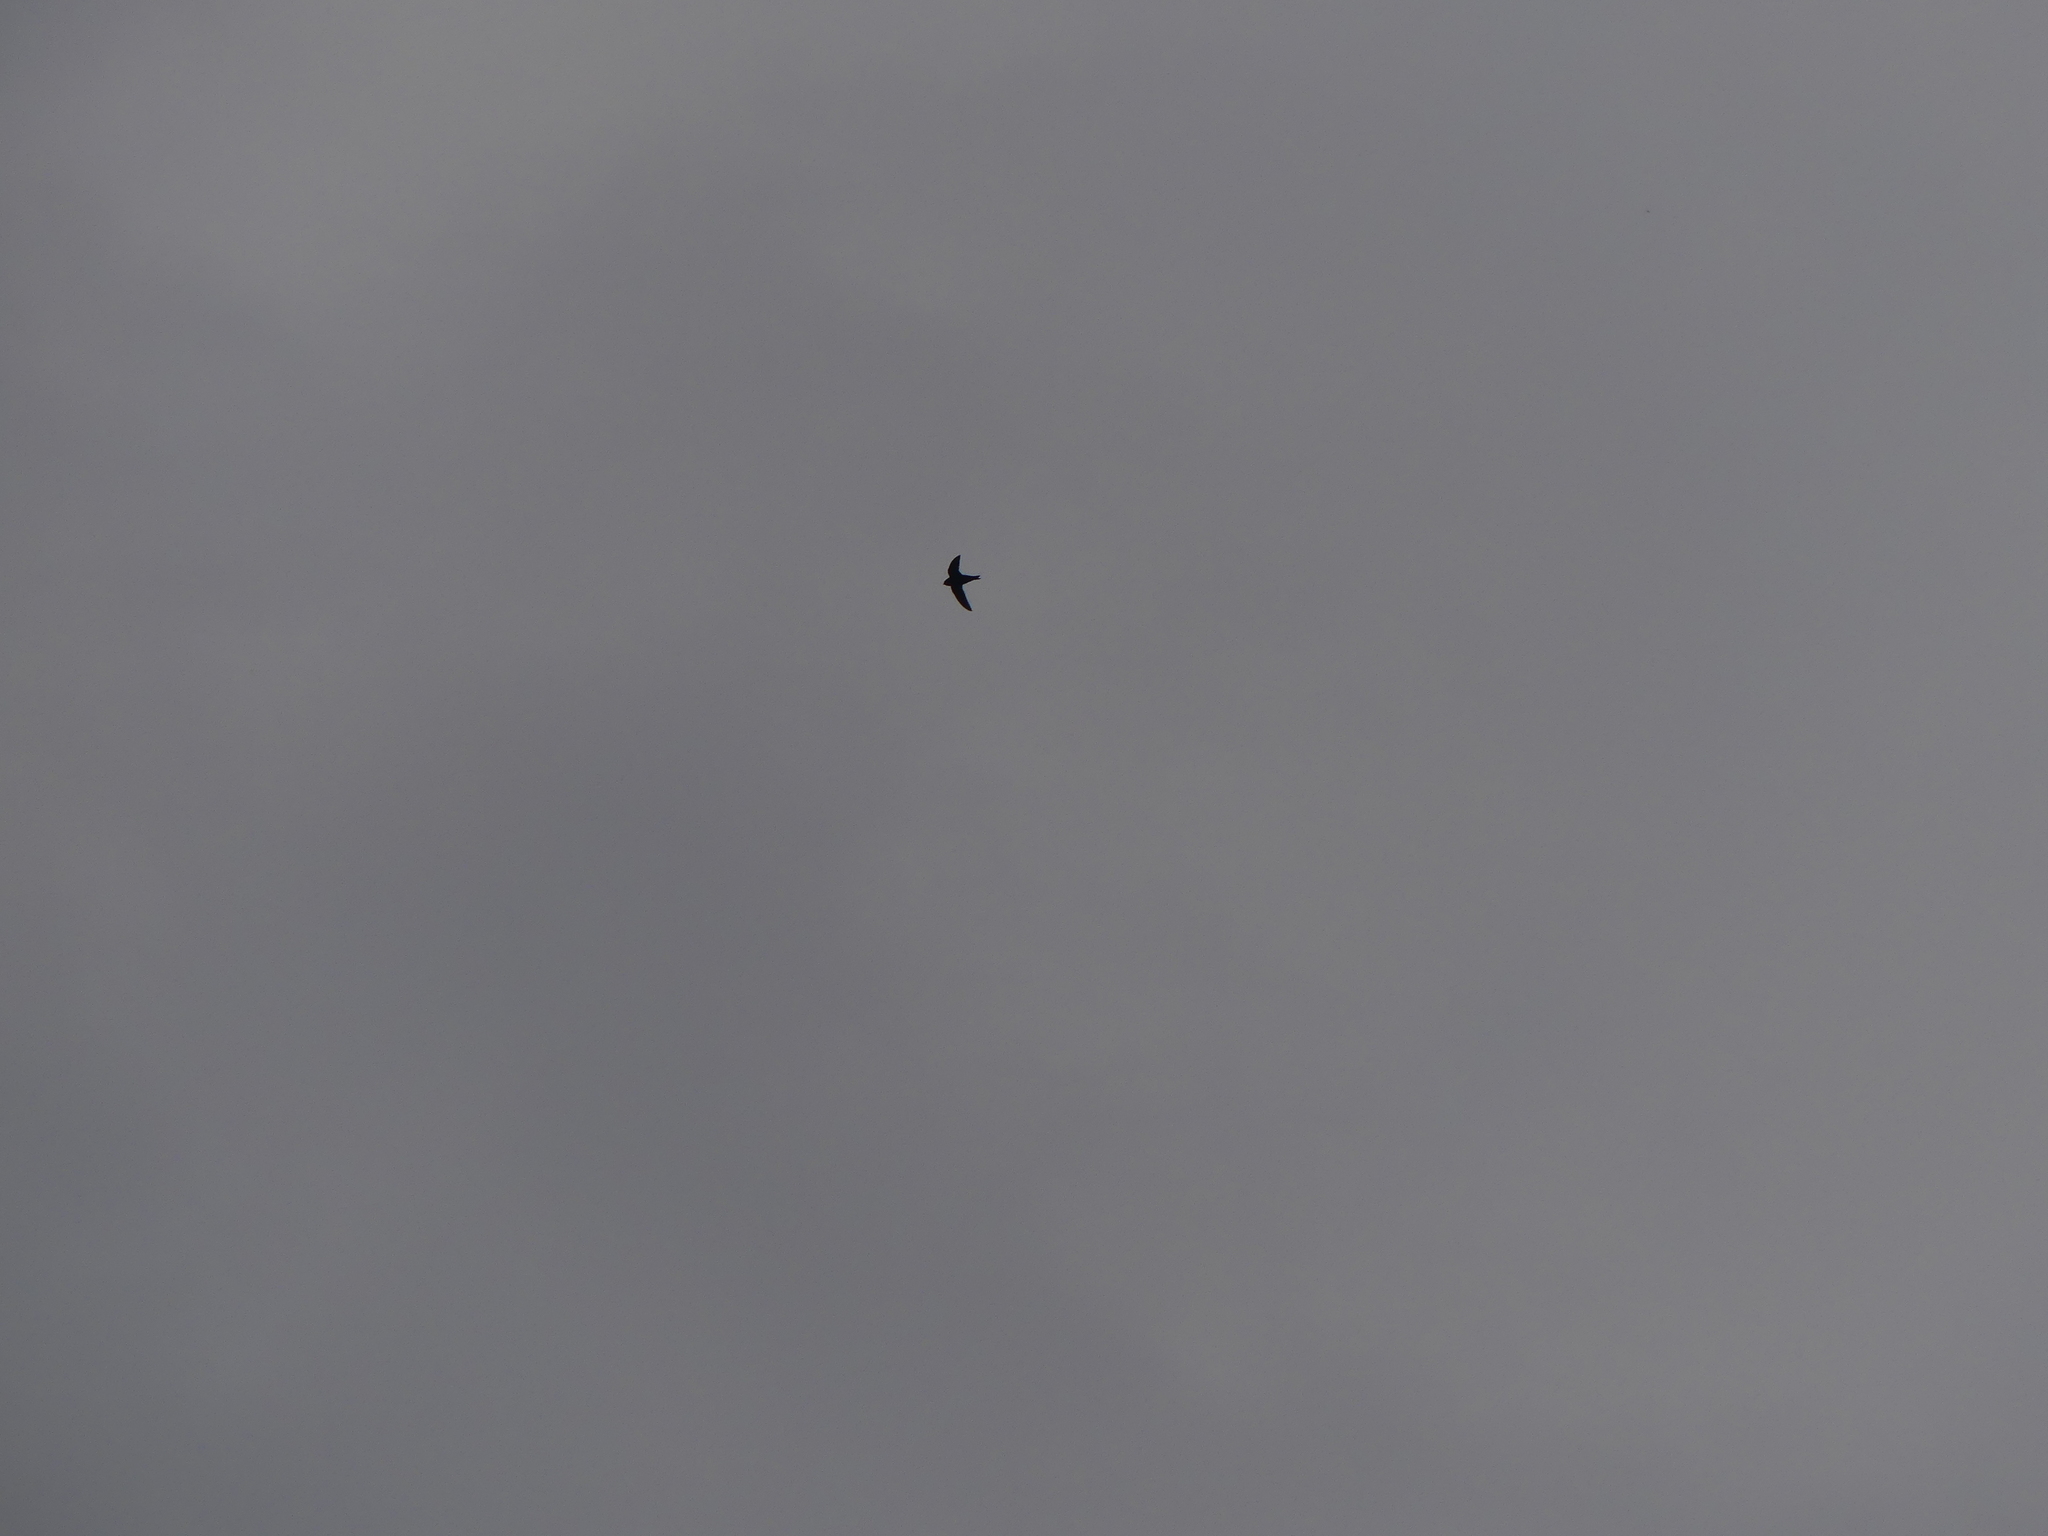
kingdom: Animalia
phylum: Chordata
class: Aves
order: Apodiformes
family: Apodidae
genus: Cypseloides
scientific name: Cypseloides niger
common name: Black swift
